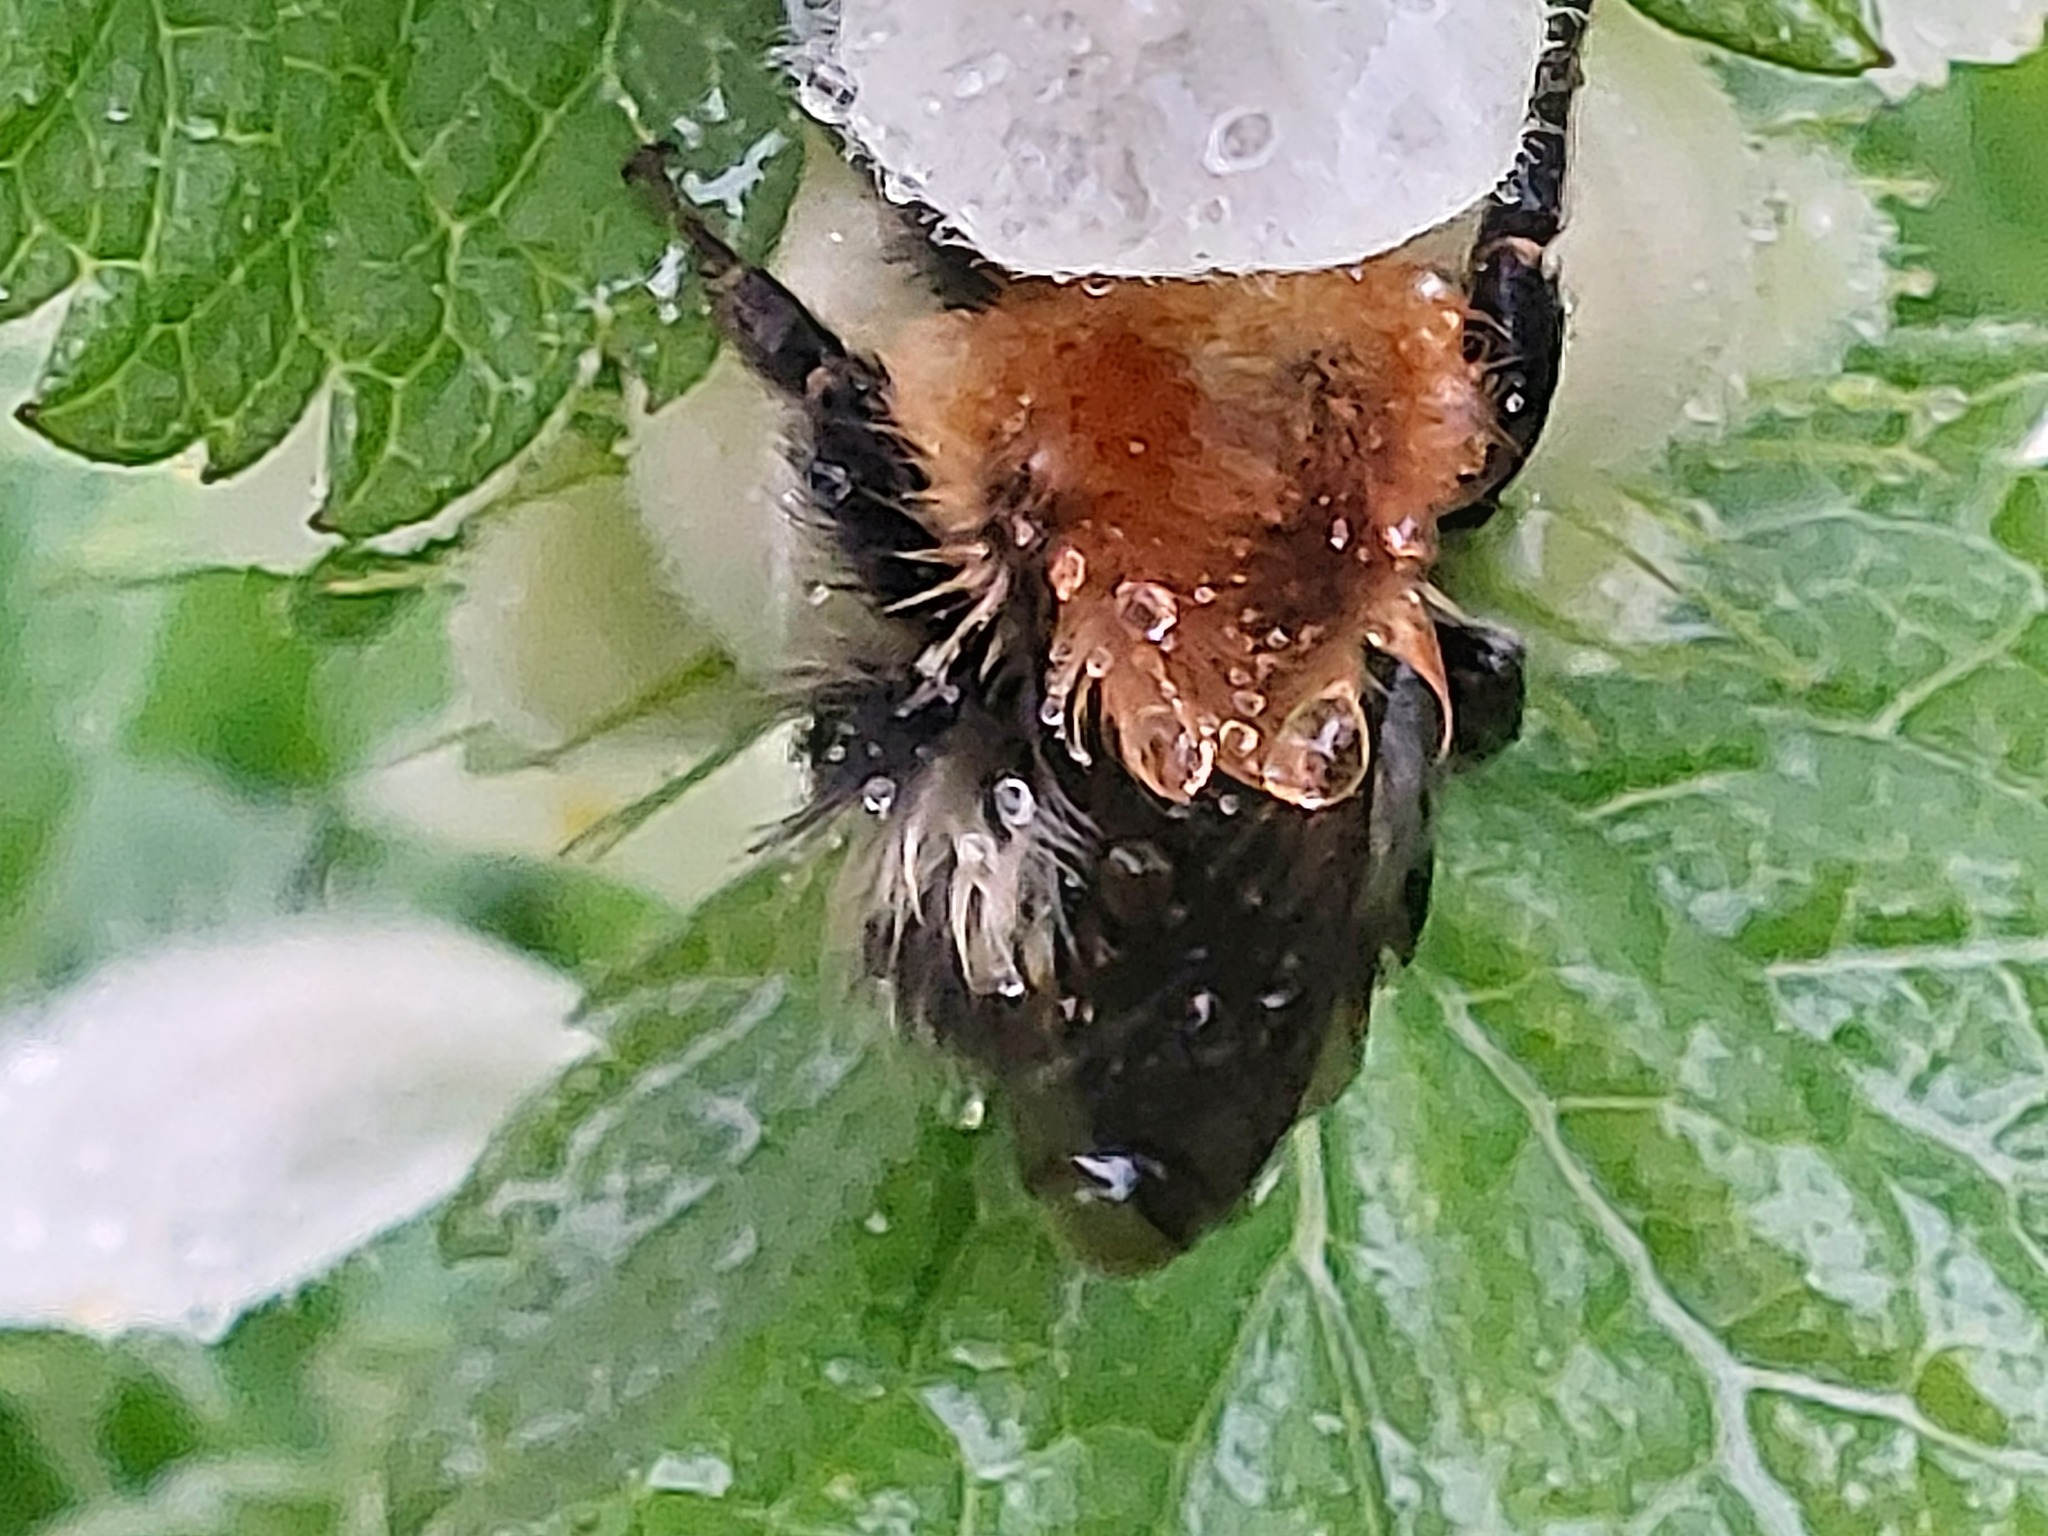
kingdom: Animalia
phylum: Arthropoda
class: Insecta
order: Hymenoptera
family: Apidae
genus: Bombus
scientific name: Bombus pascuorum
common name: Common carder bee
